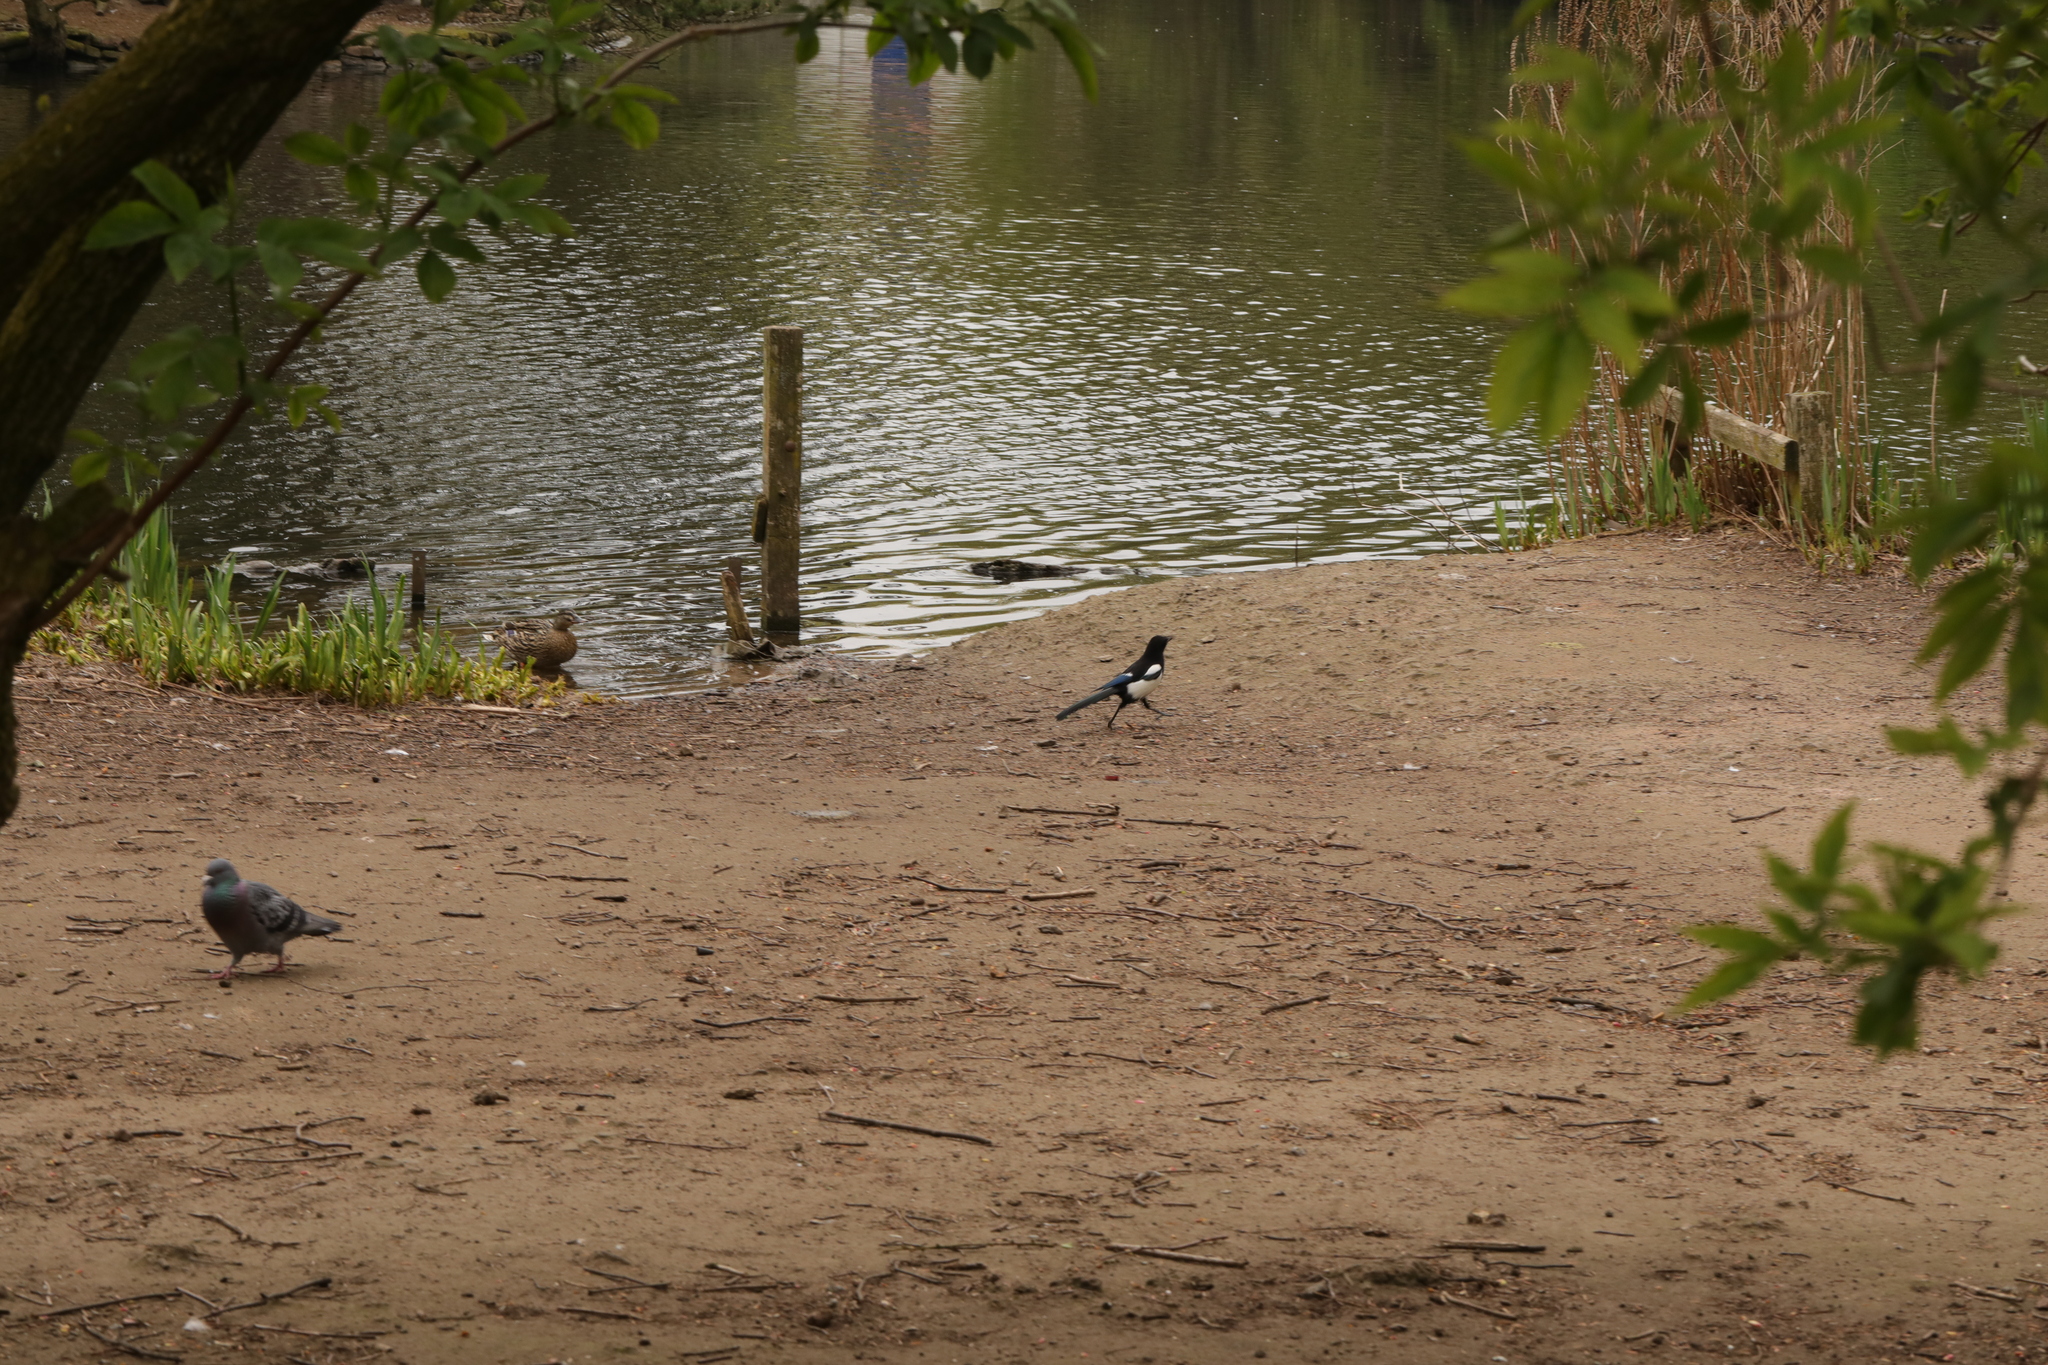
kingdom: Animalia
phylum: Chordata
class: Aves
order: Passeriformes
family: Corvidae
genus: Pica
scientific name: Pica pica
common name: Eurasian magpie
